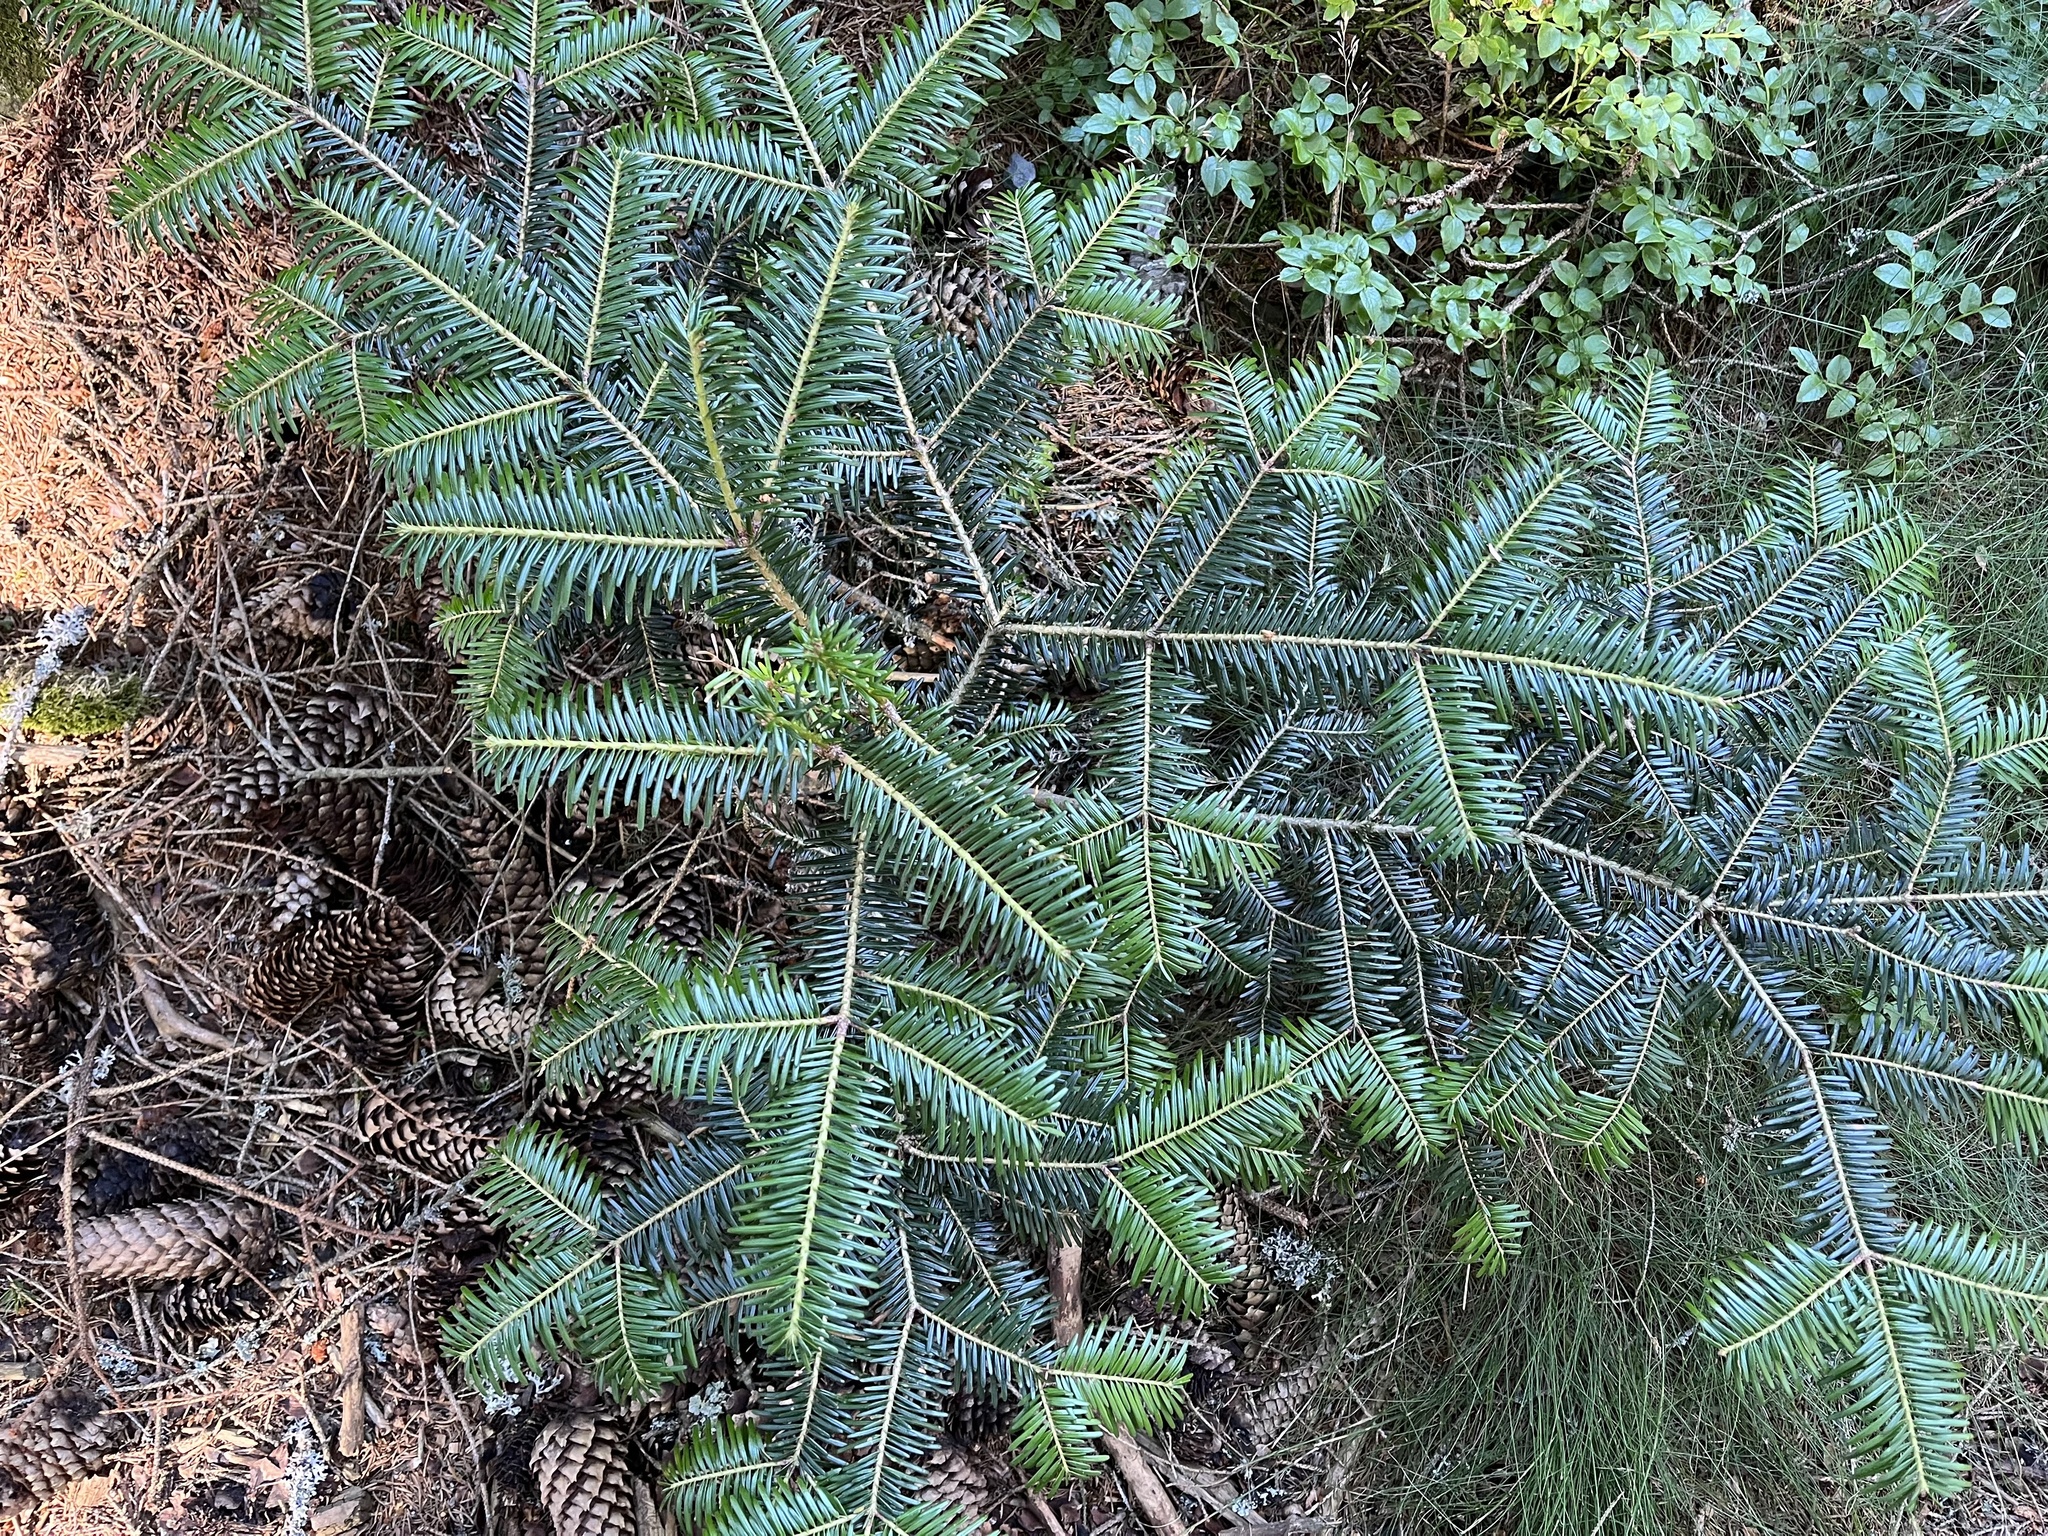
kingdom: Plantae
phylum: Tracheophyta
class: Pinopsida
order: Pinales
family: Pinaceae
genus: Abies
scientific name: Abies alba
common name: Silver fir
